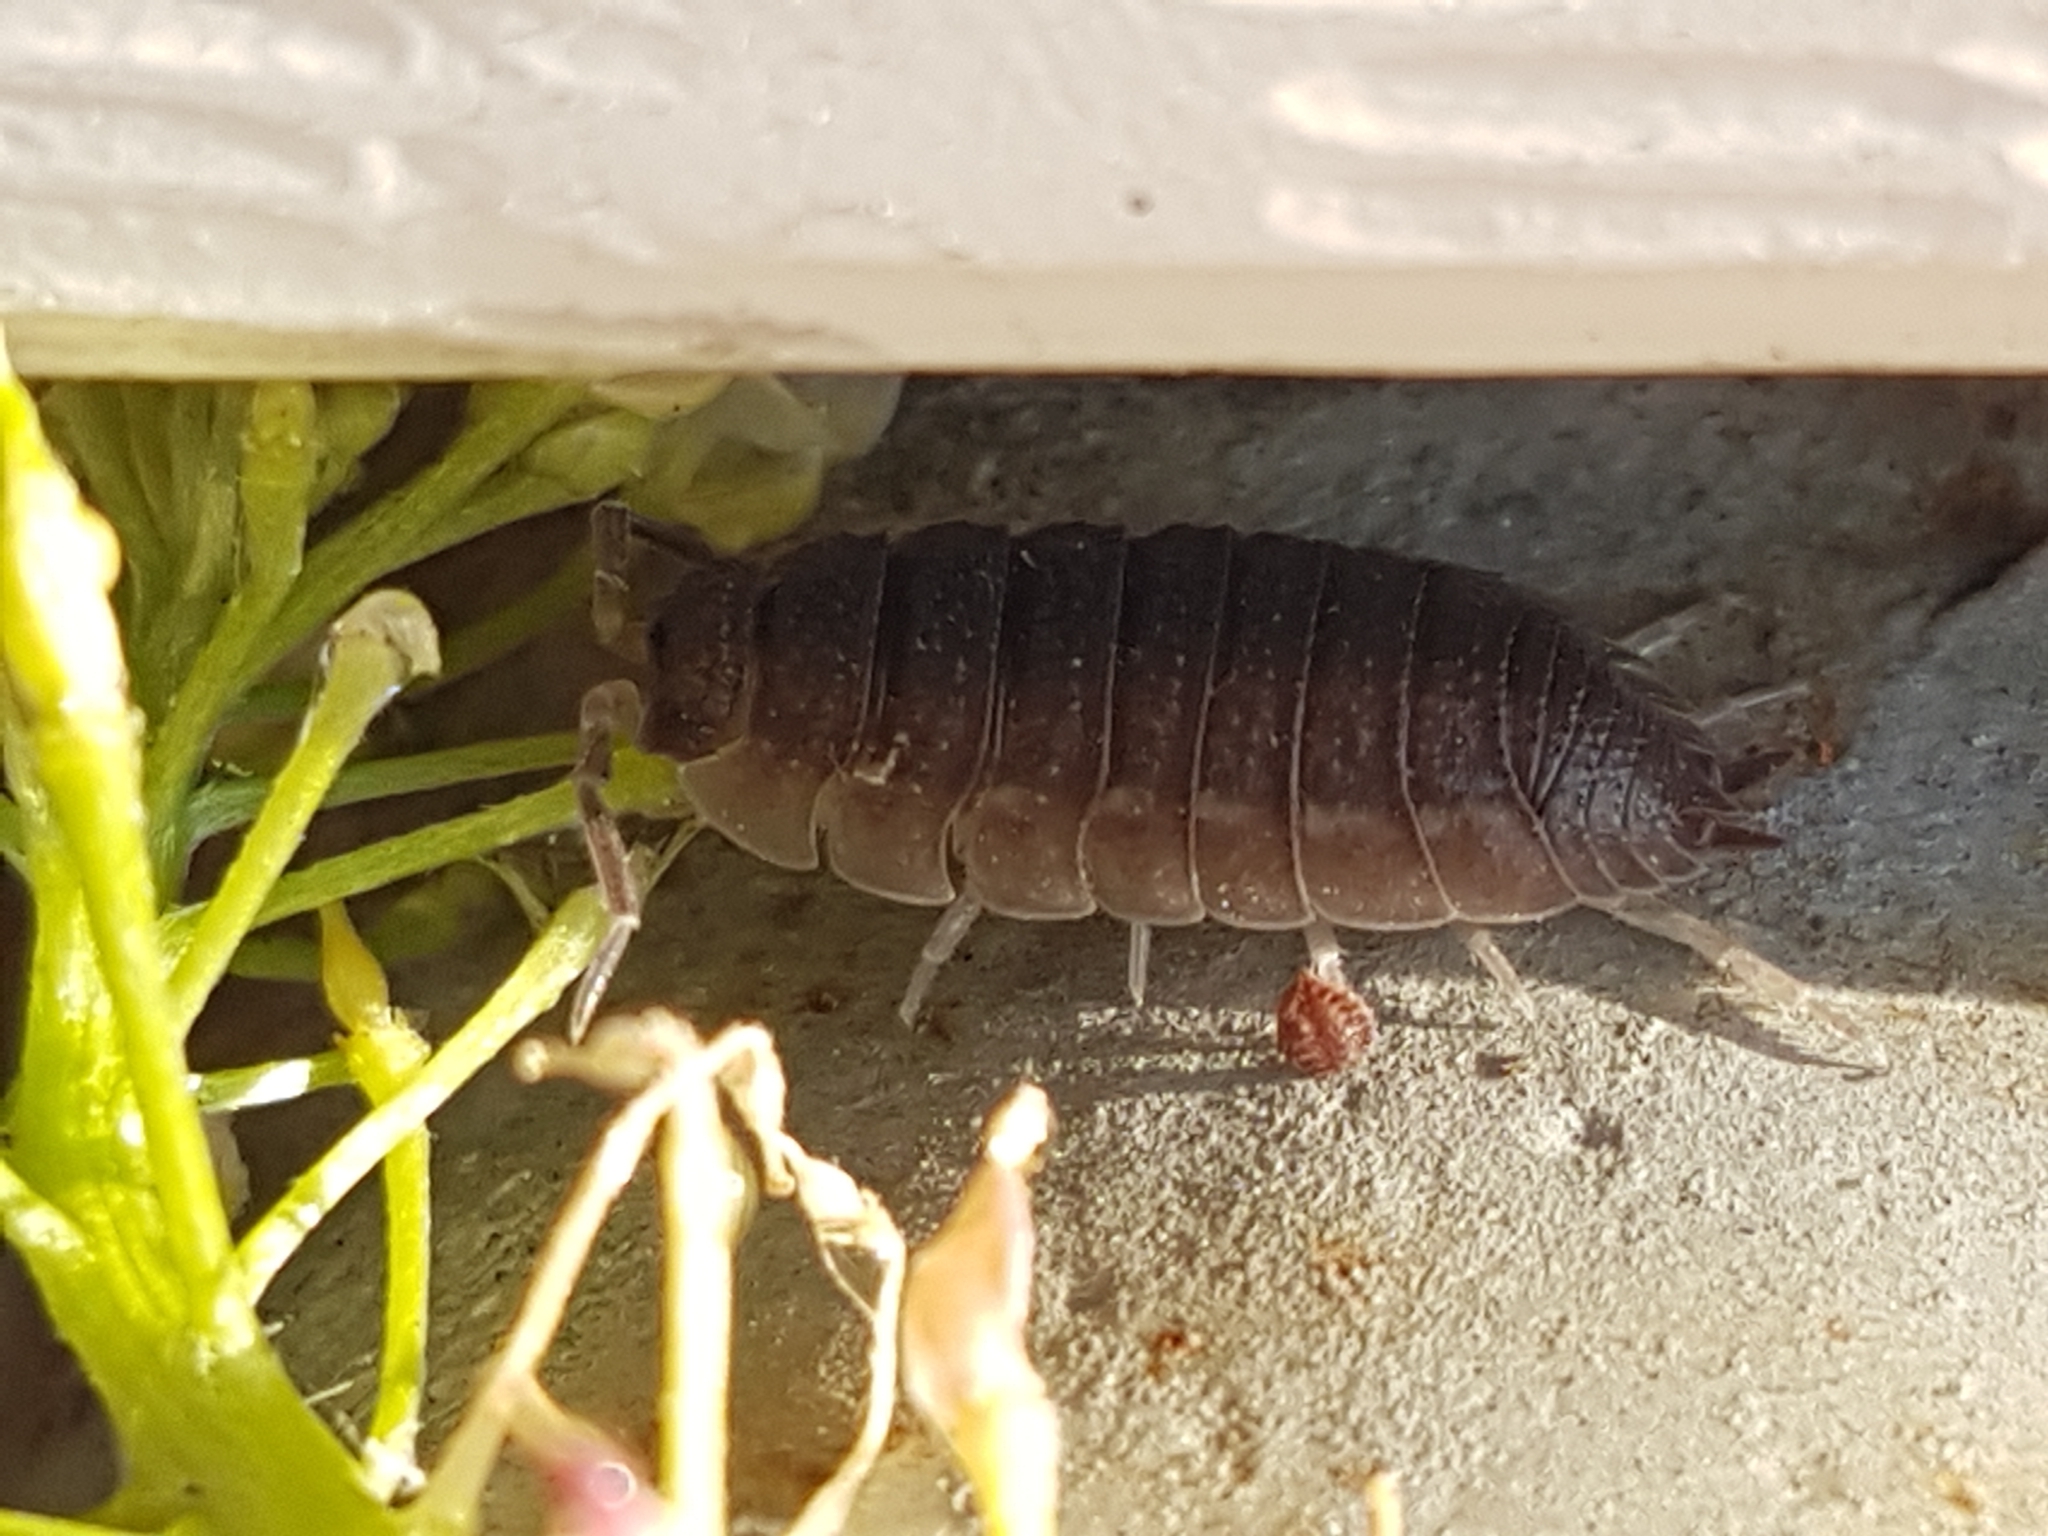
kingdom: Animalia
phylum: Arthropoda
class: Malacostraca
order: Isopoda
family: Porcellionidae
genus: Porcellio
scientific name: Porcellio scaber
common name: Common rough woodlouse
